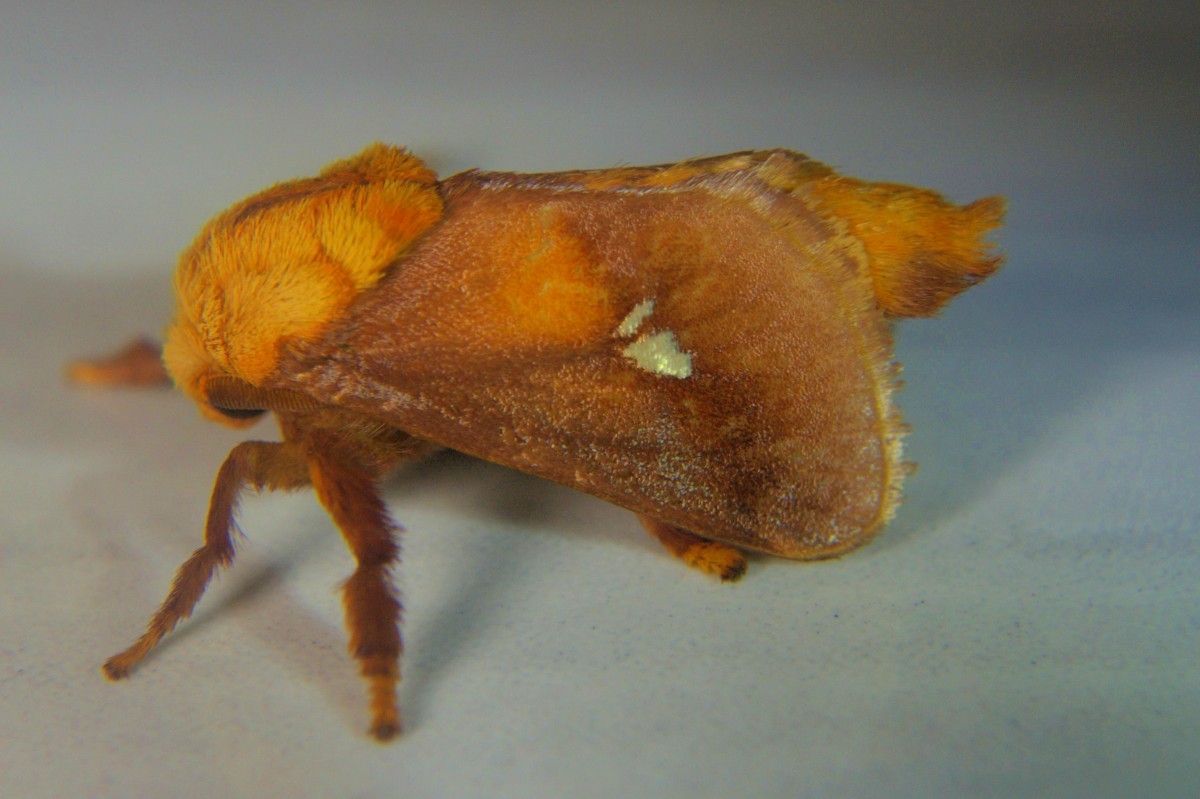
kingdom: Animalia
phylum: Arthropoda
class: Insecta
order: Lepidoptera
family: Limacodidae
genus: Miresa
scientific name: Miresa albipuncta
